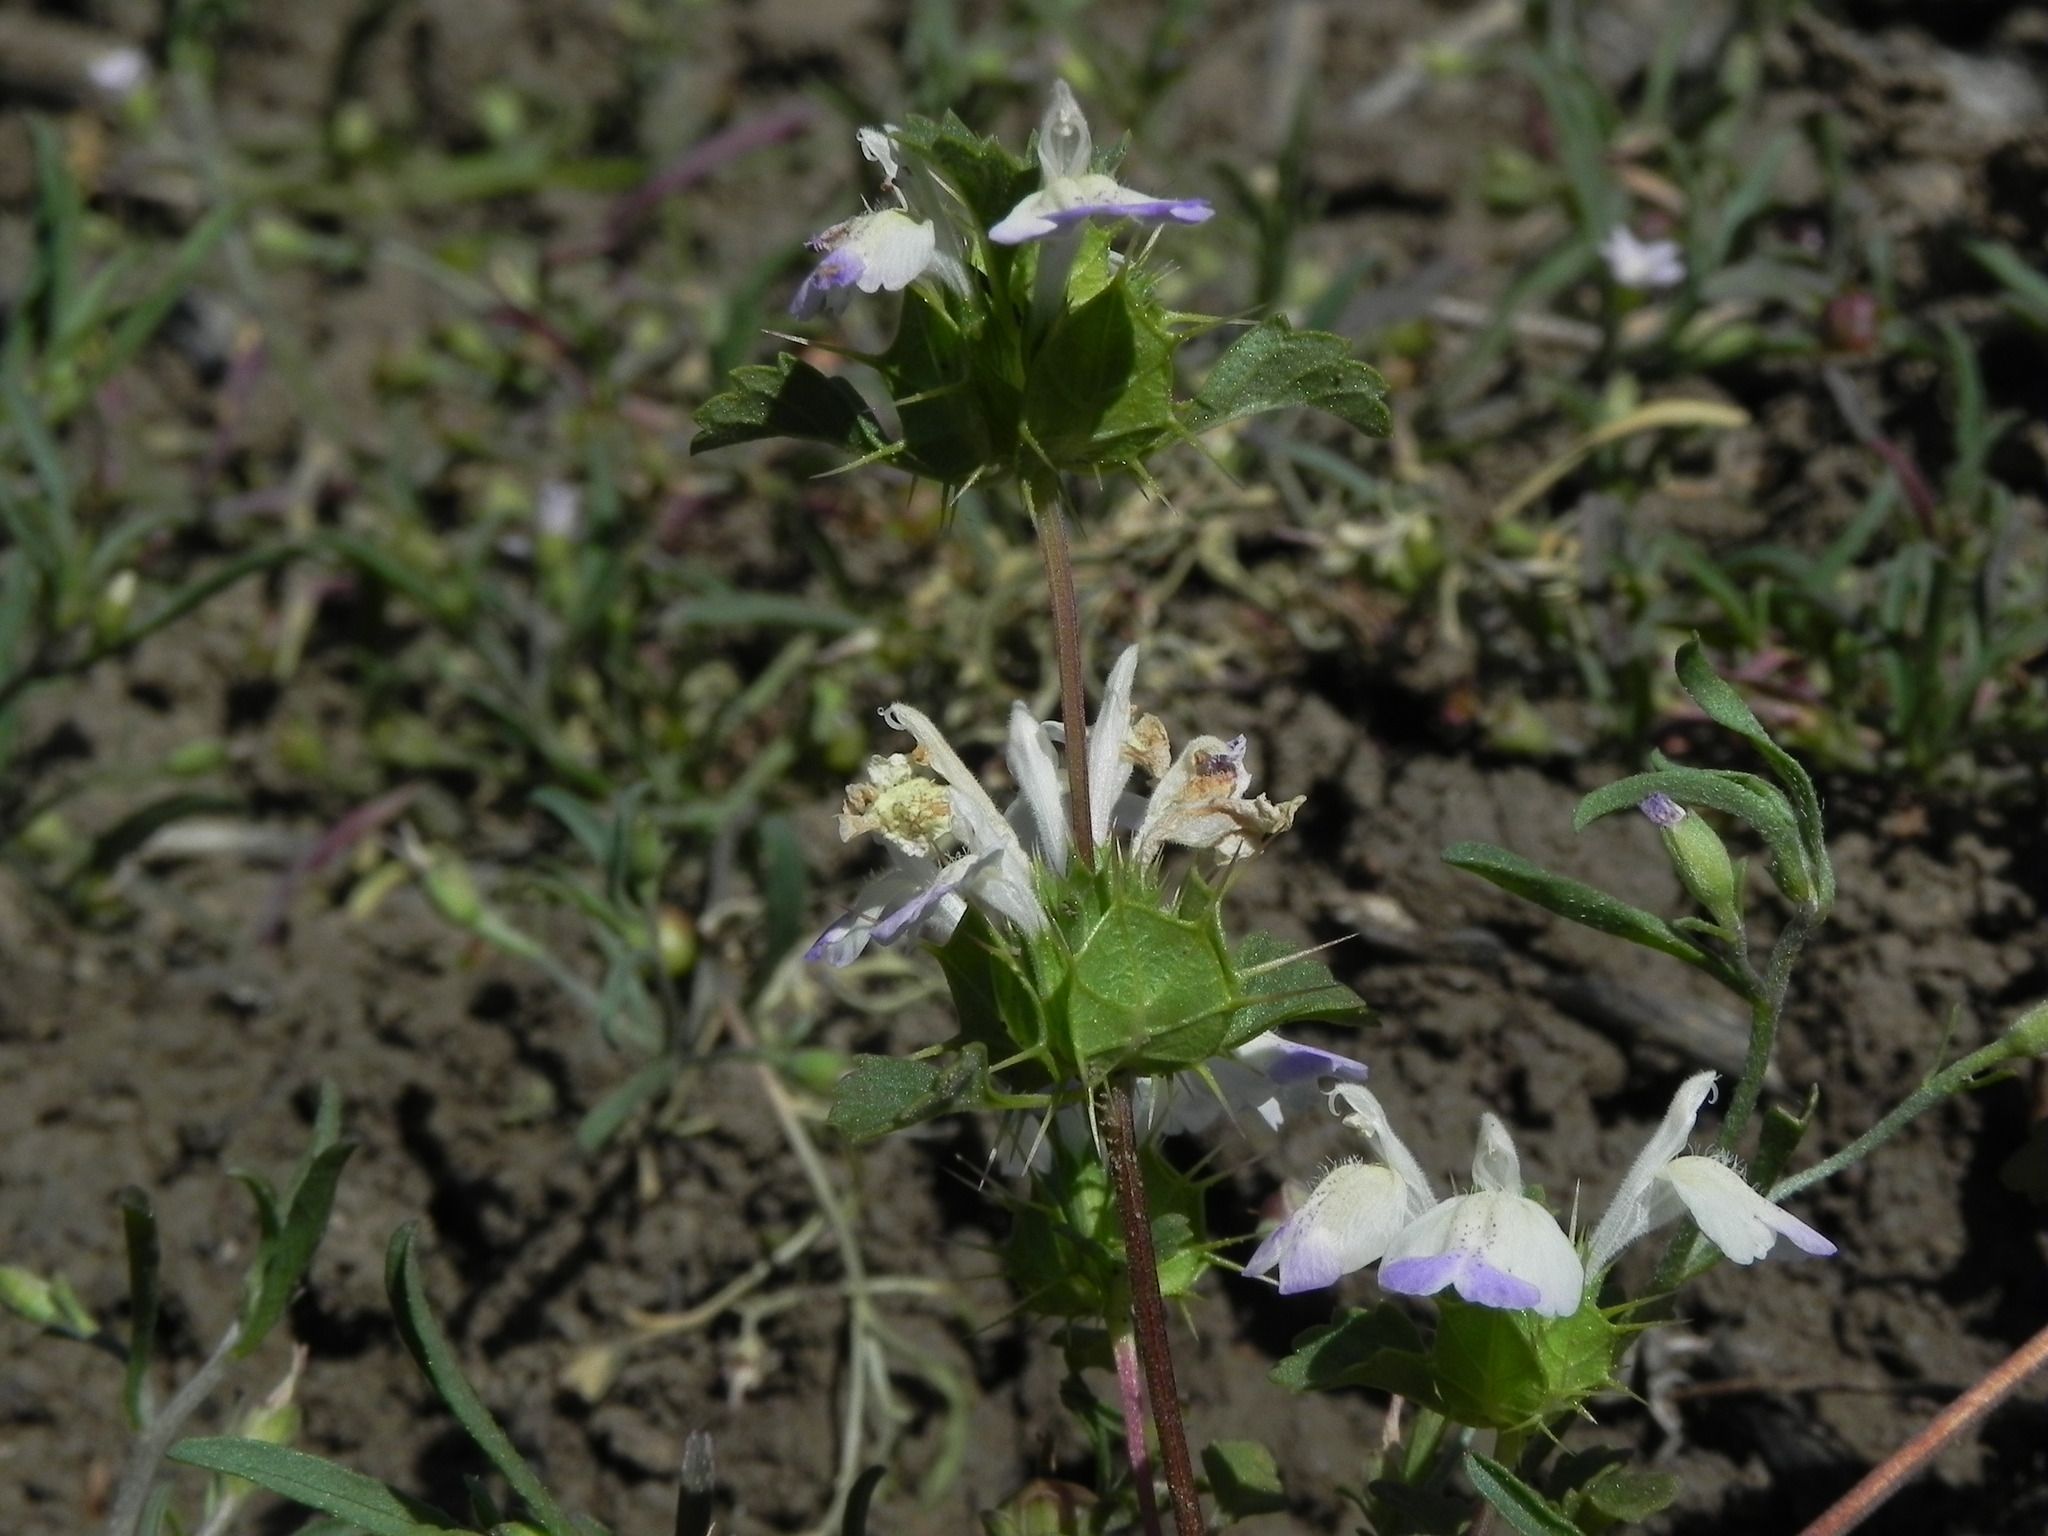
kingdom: Plantae
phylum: Tracheophyta
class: Magnoliopsida
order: Lamiales
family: Lamiaceae
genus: Acanthomintha
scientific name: Acanthomintha ilicifolia
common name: San diego thorn-mint
